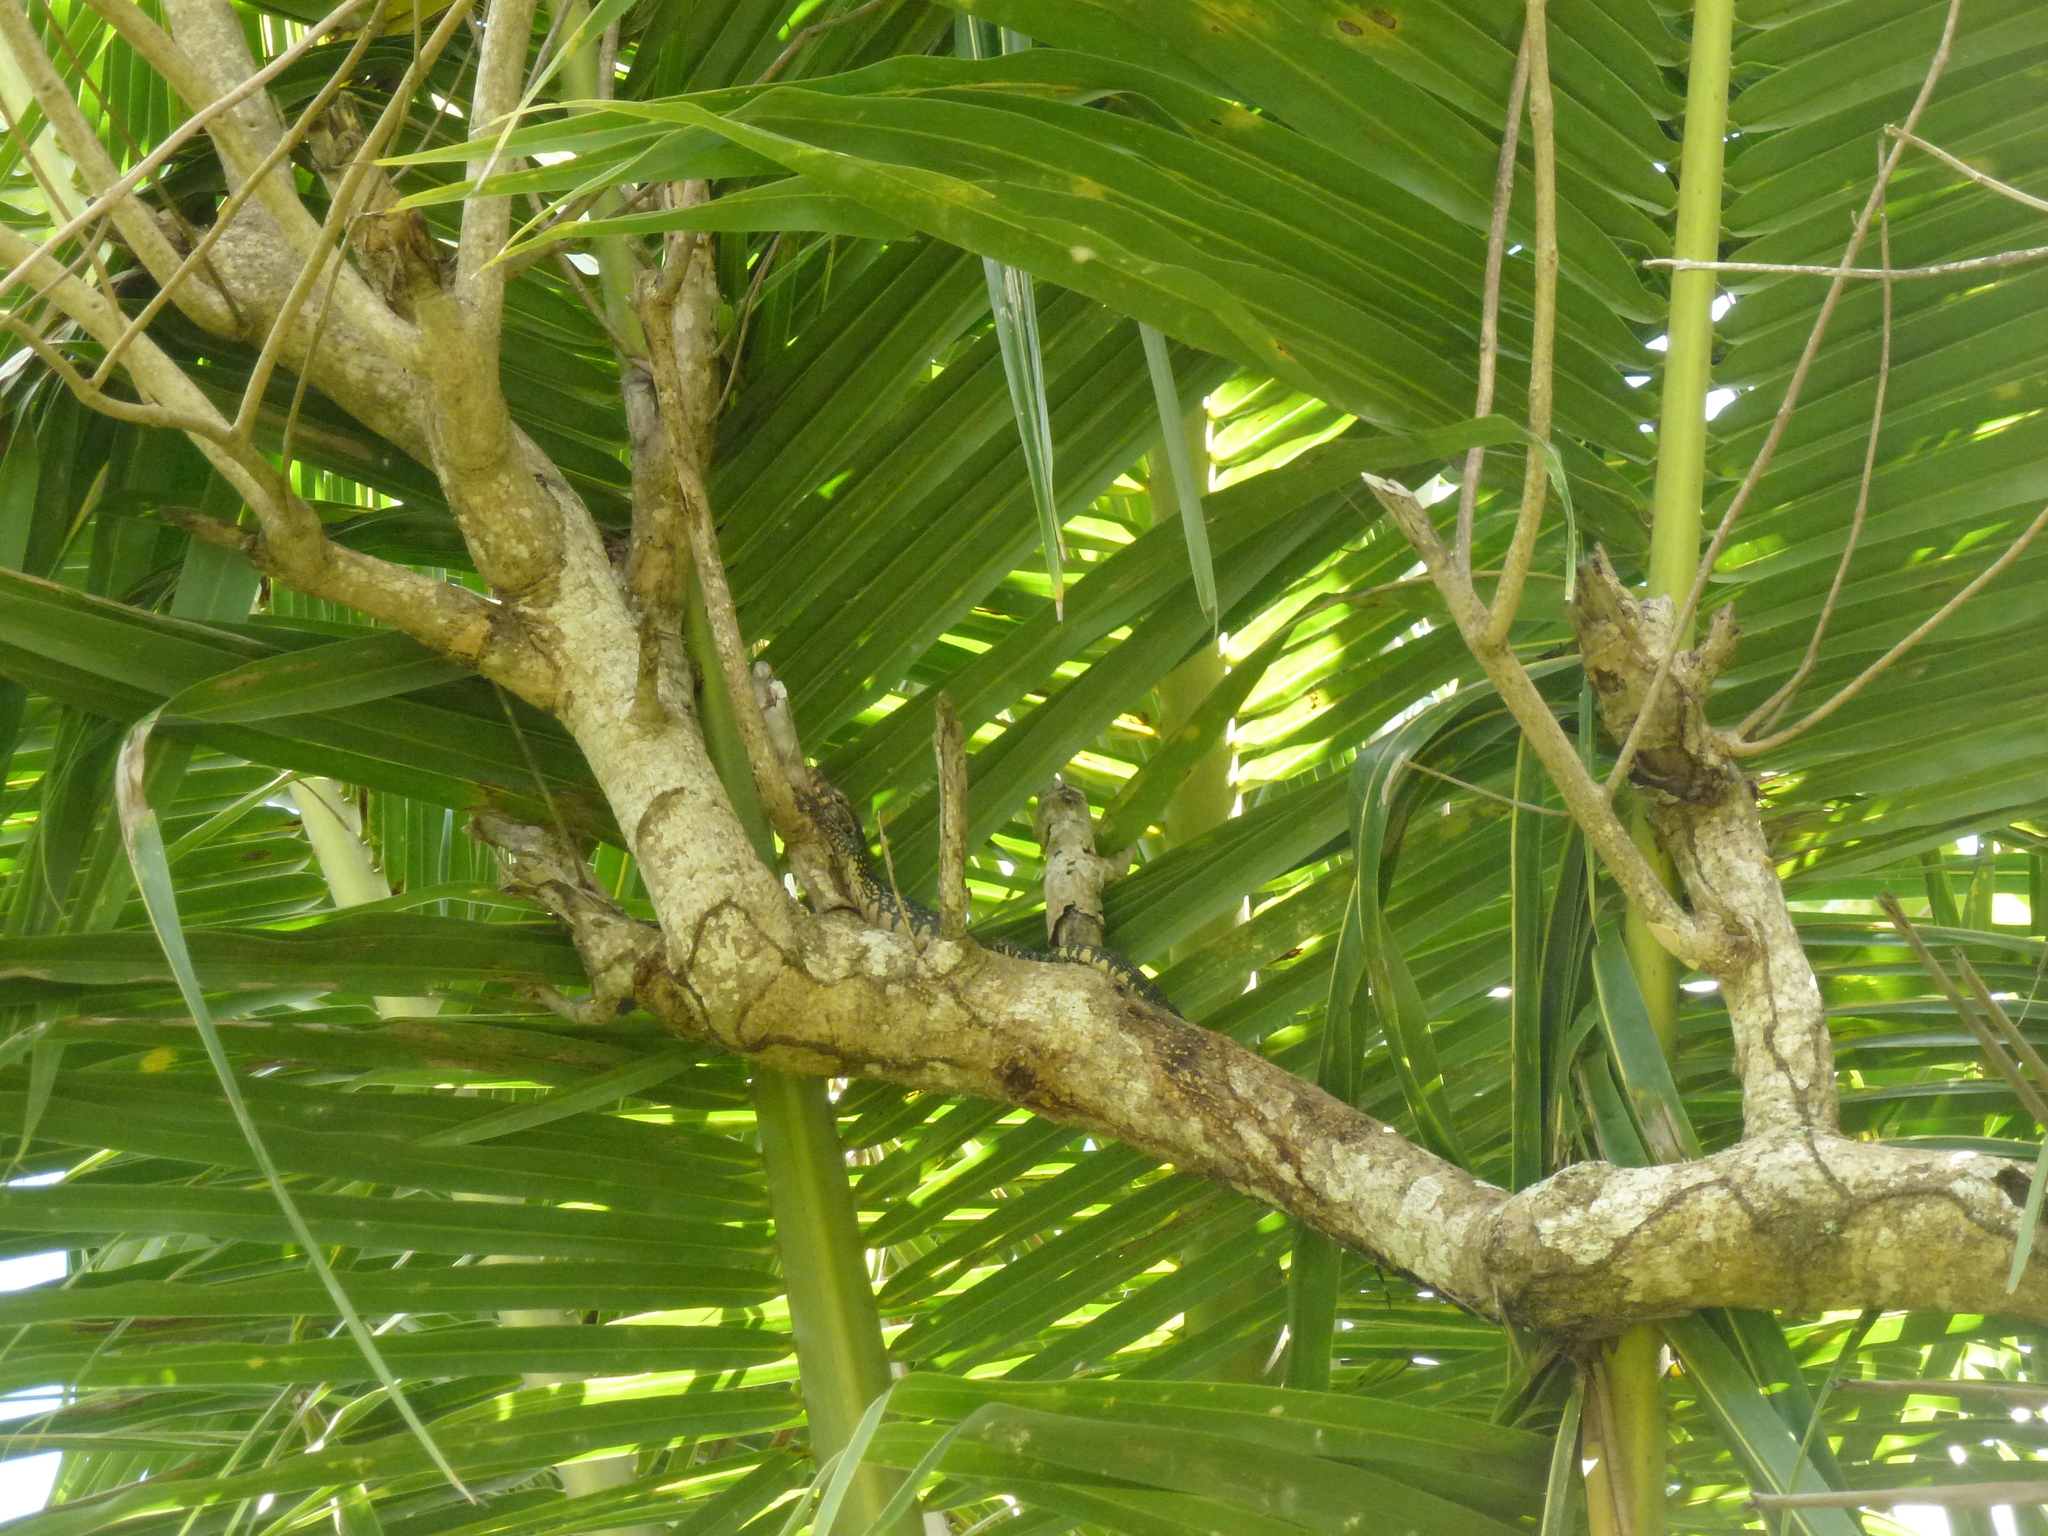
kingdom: Animalia
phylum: Chordata
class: Squamata
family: Varanidae
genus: Varanus
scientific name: Varanus salvator
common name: Common water monitor
